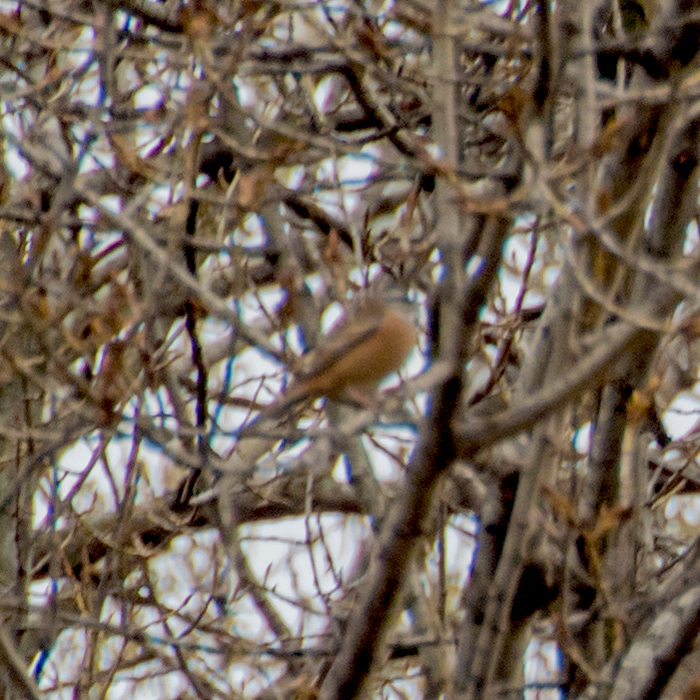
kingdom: Animalia
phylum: Chordata
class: Aves
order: Passeriformes
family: Emberizidae
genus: Emberiza
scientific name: Emberiza cia
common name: Rock bunting
